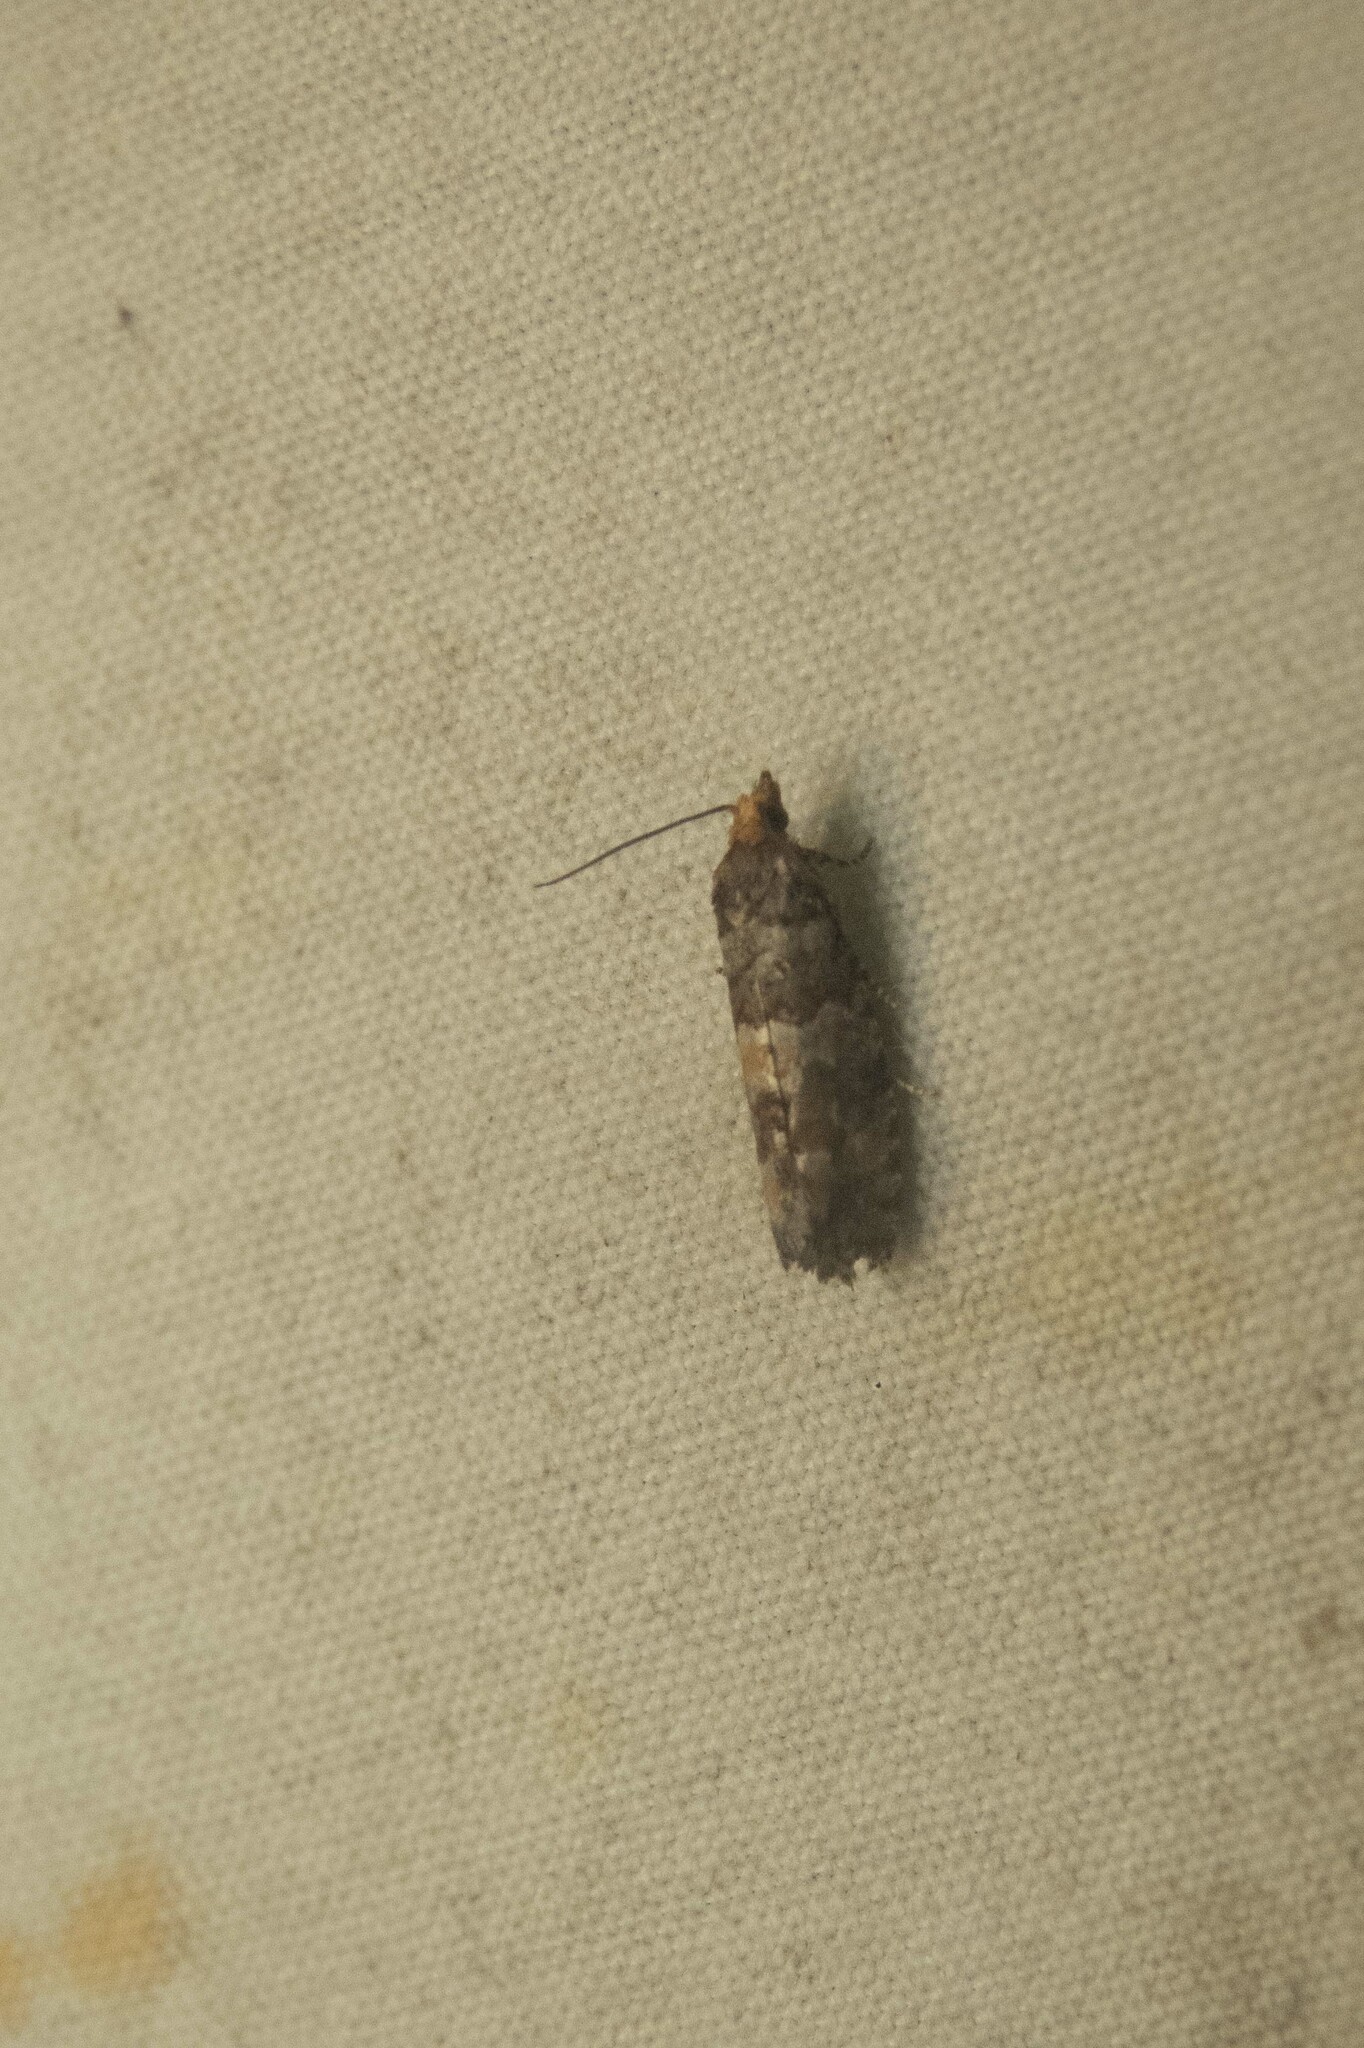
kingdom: Animalia
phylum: Arthropoda
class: Insecta
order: Lepidoptera
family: Tortricidae
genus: Eucopina
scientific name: Eucopina tocullionana
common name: White pinecone borer moth
